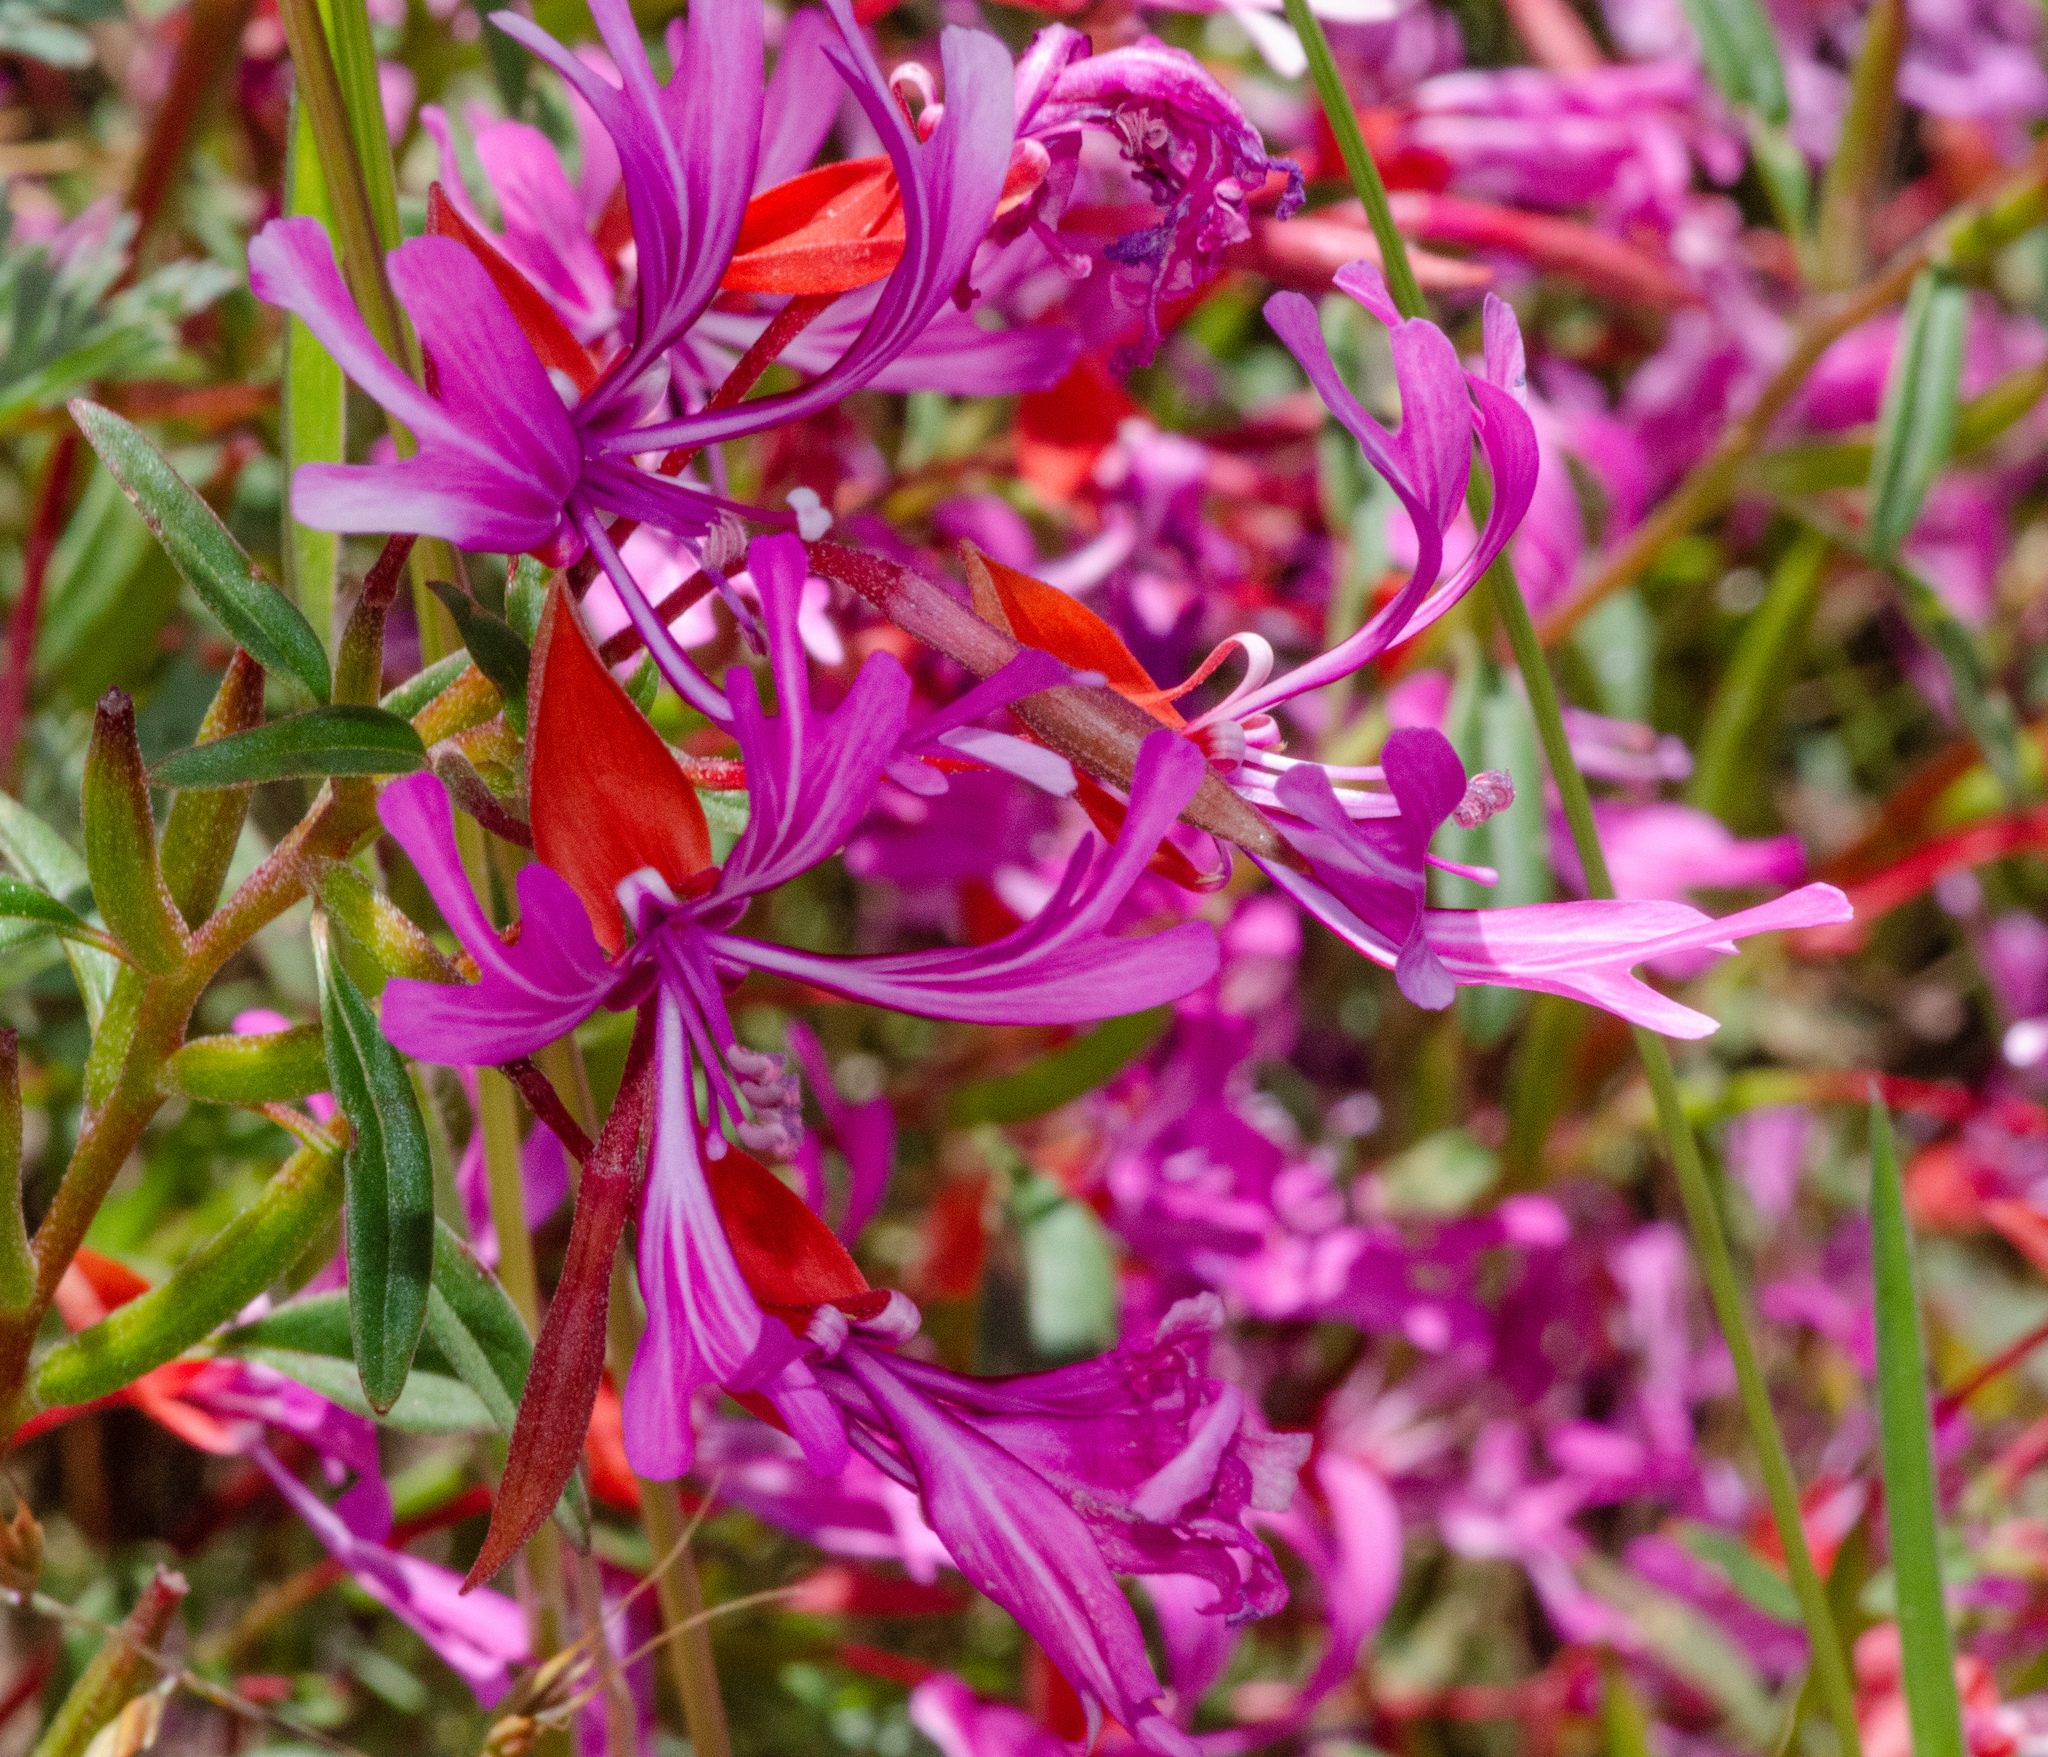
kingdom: Plantae
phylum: Tracheophyta
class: Magnoliopsida
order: Myrtales
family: Onagraceae
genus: Clarkia
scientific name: Clarkia concinna
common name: Red-ribbons
